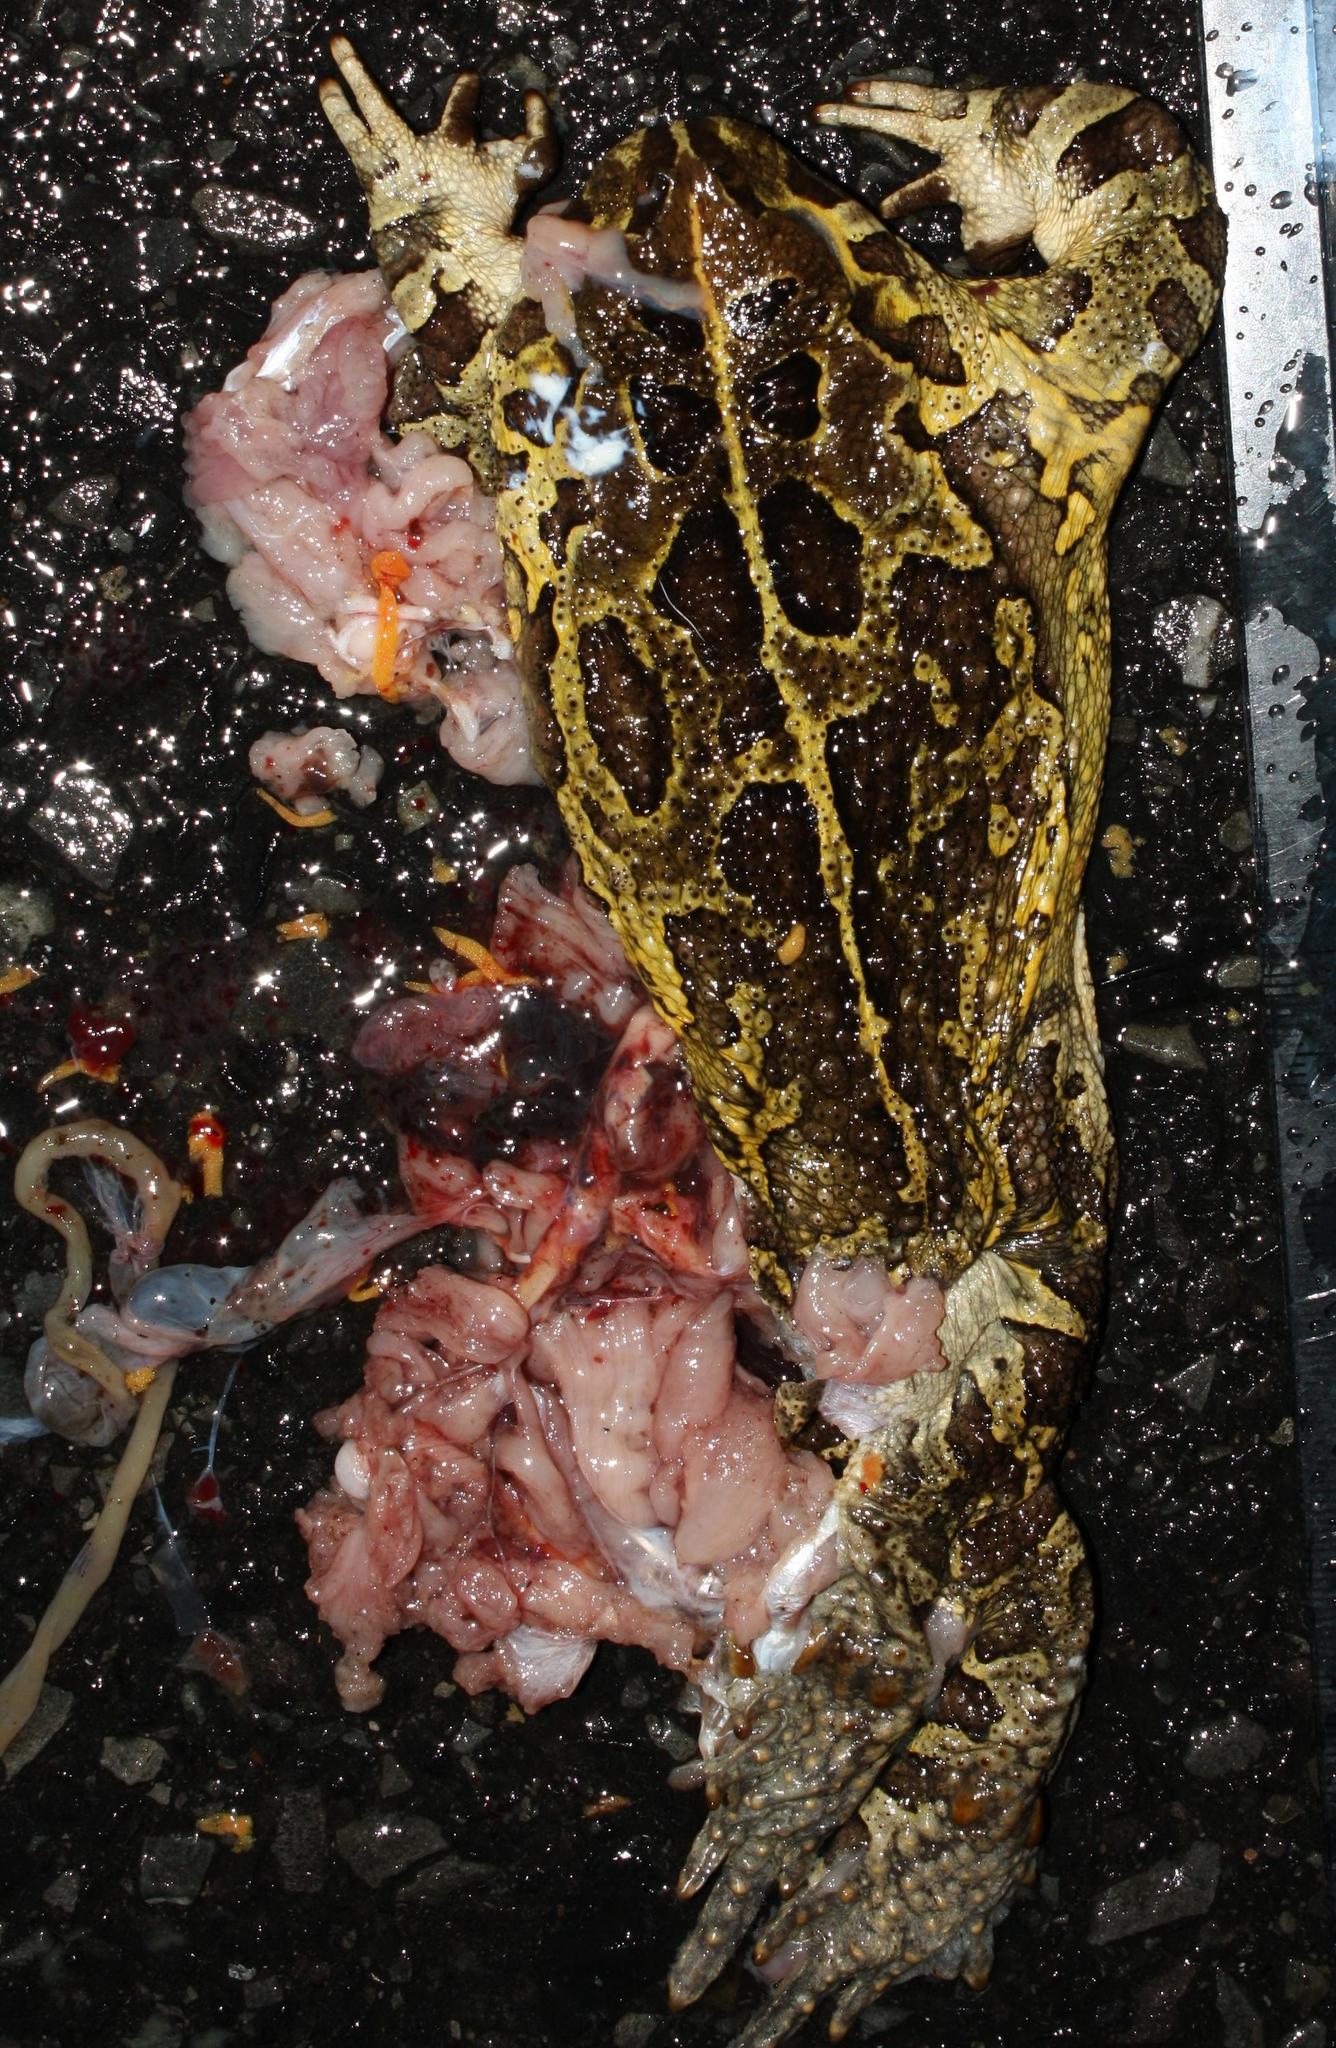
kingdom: Animalia
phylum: Chordata
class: Amphibia
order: Anura
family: Bufonidae
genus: Sclerophrys
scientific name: Sclerophrys pantherina
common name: Panther toad
